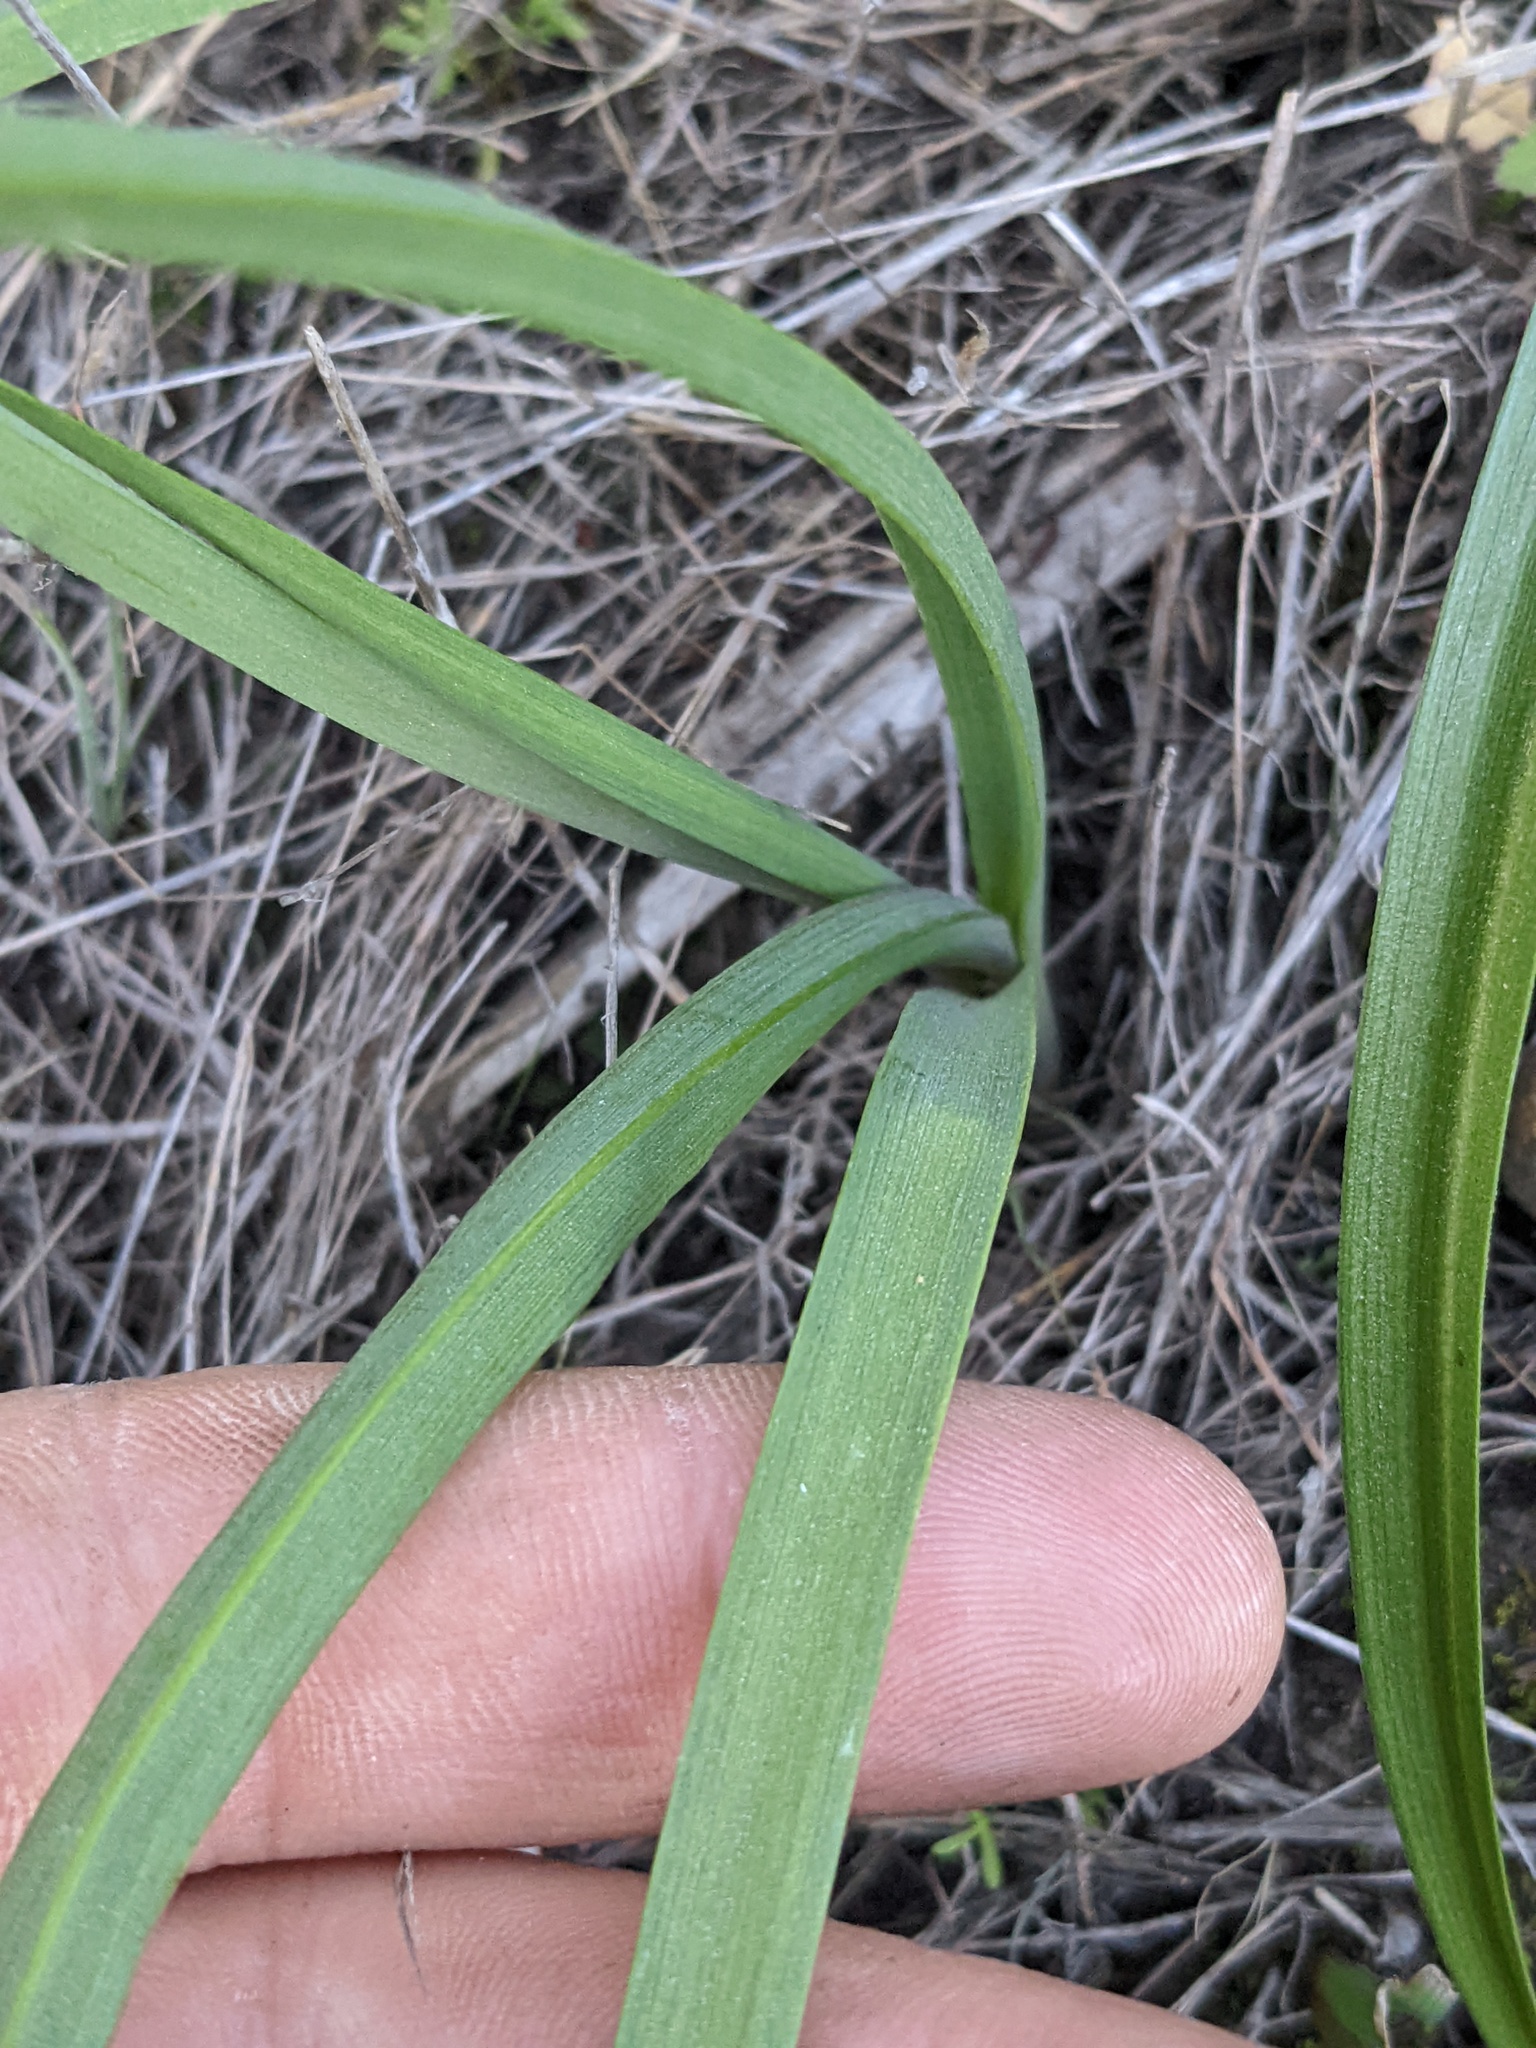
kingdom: Plantae
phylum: Tracheophyta
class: Liliopsida
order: Asparagales
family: Amaryllidaceae
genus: Allium
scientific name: Allium praecox
